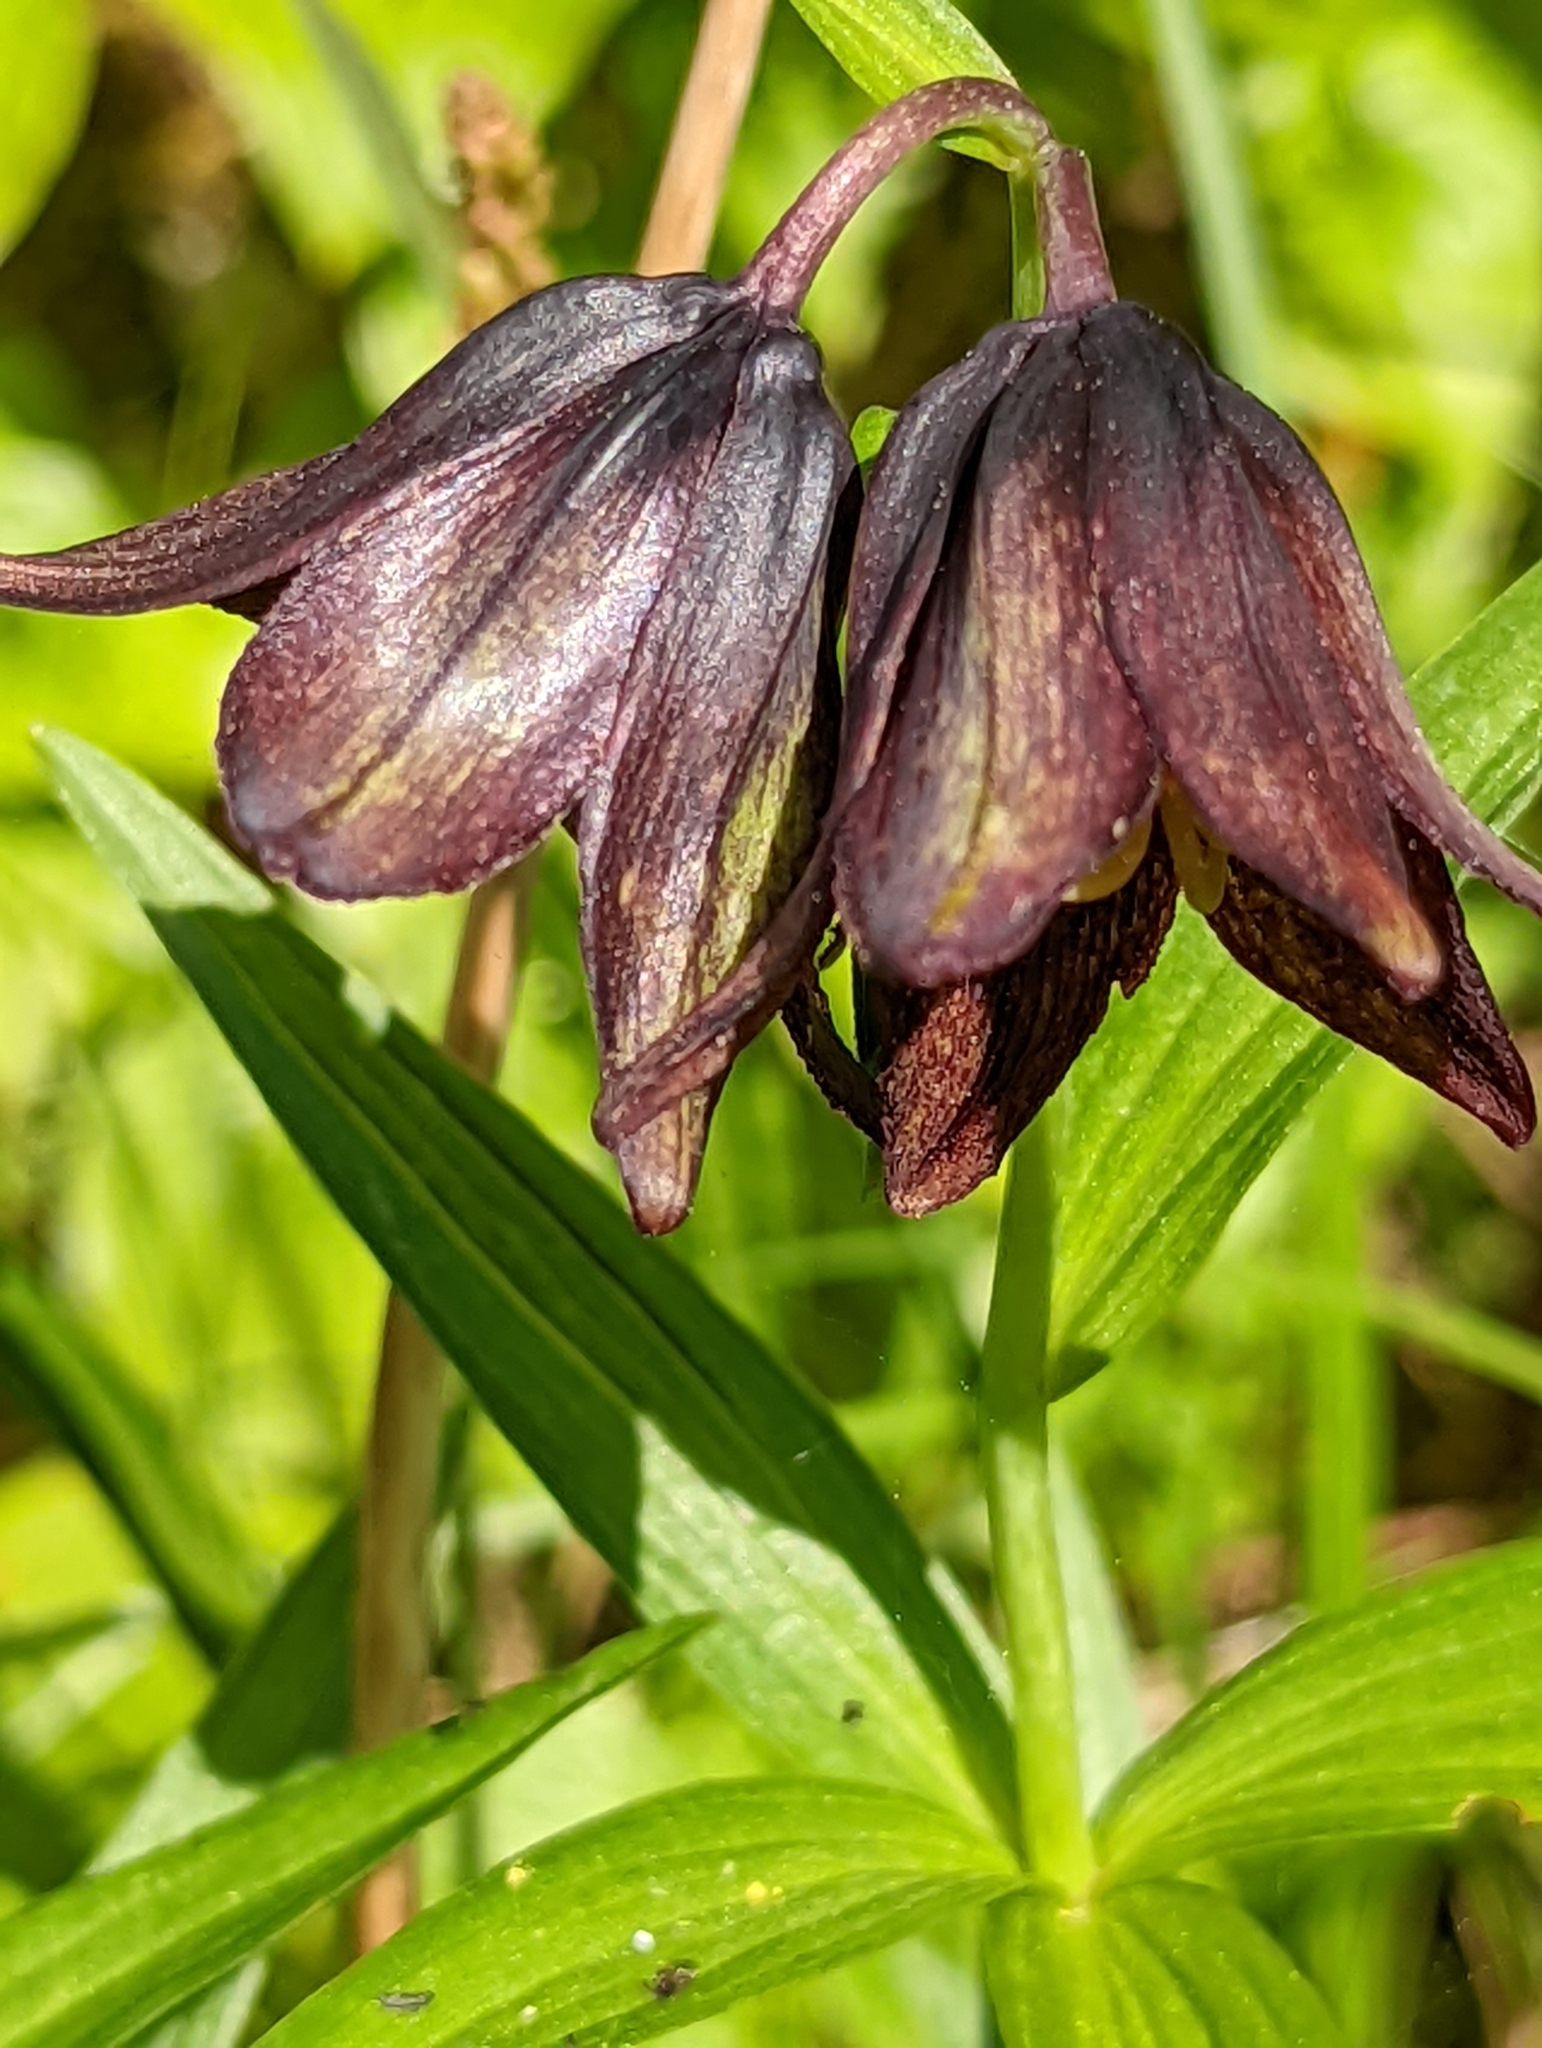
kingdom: Plantae
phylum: Tracheophyta
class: Liliopsida
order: Liliales
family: Liliaceae
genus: Fritillaria
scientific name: Fritillaria camschatcensis
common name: Kamchatka fritillary
